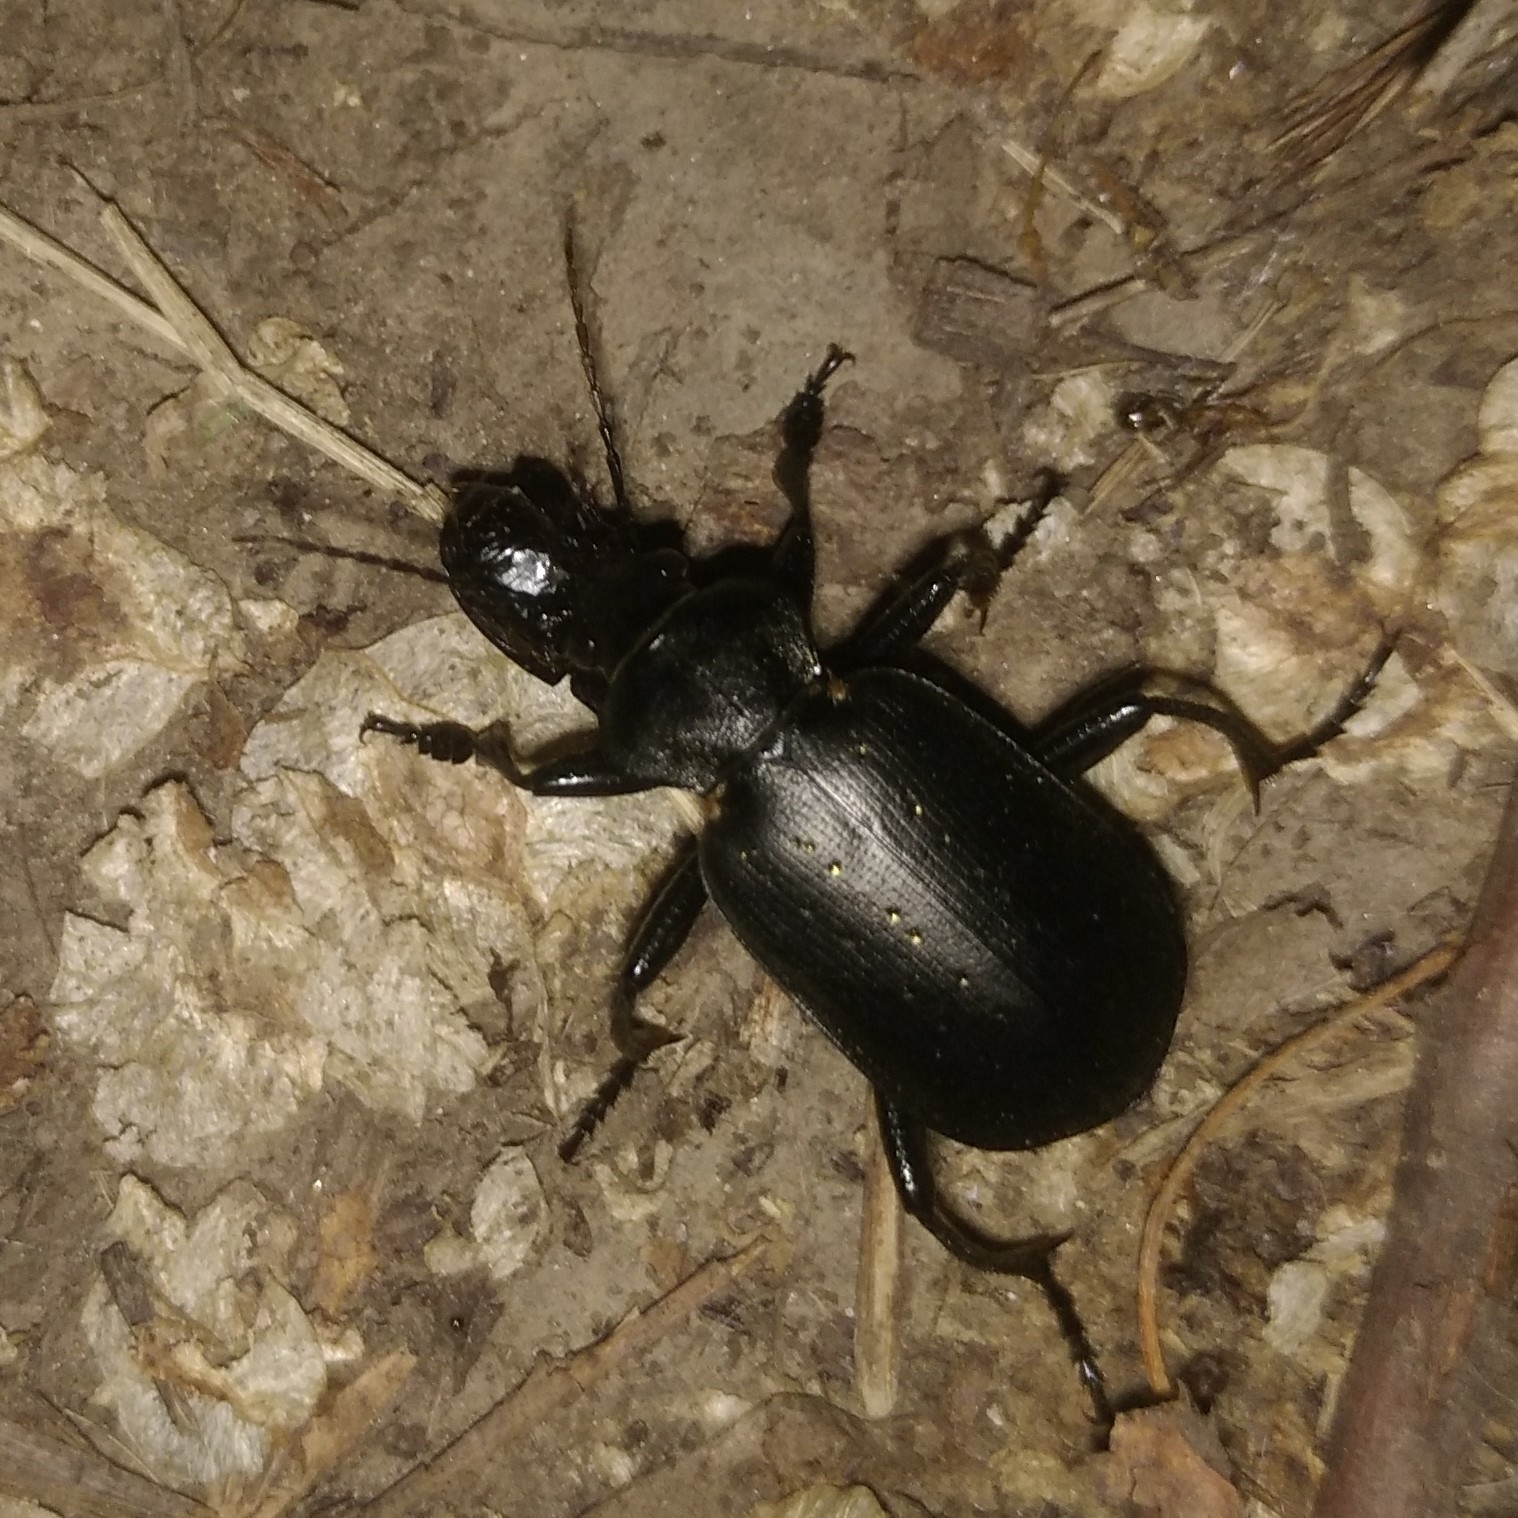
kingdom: Animalia
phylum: Arthropoda
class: Insecta
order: Coleoptera
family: Carabidae
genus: Calosoma
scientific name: Calosoma maderae
